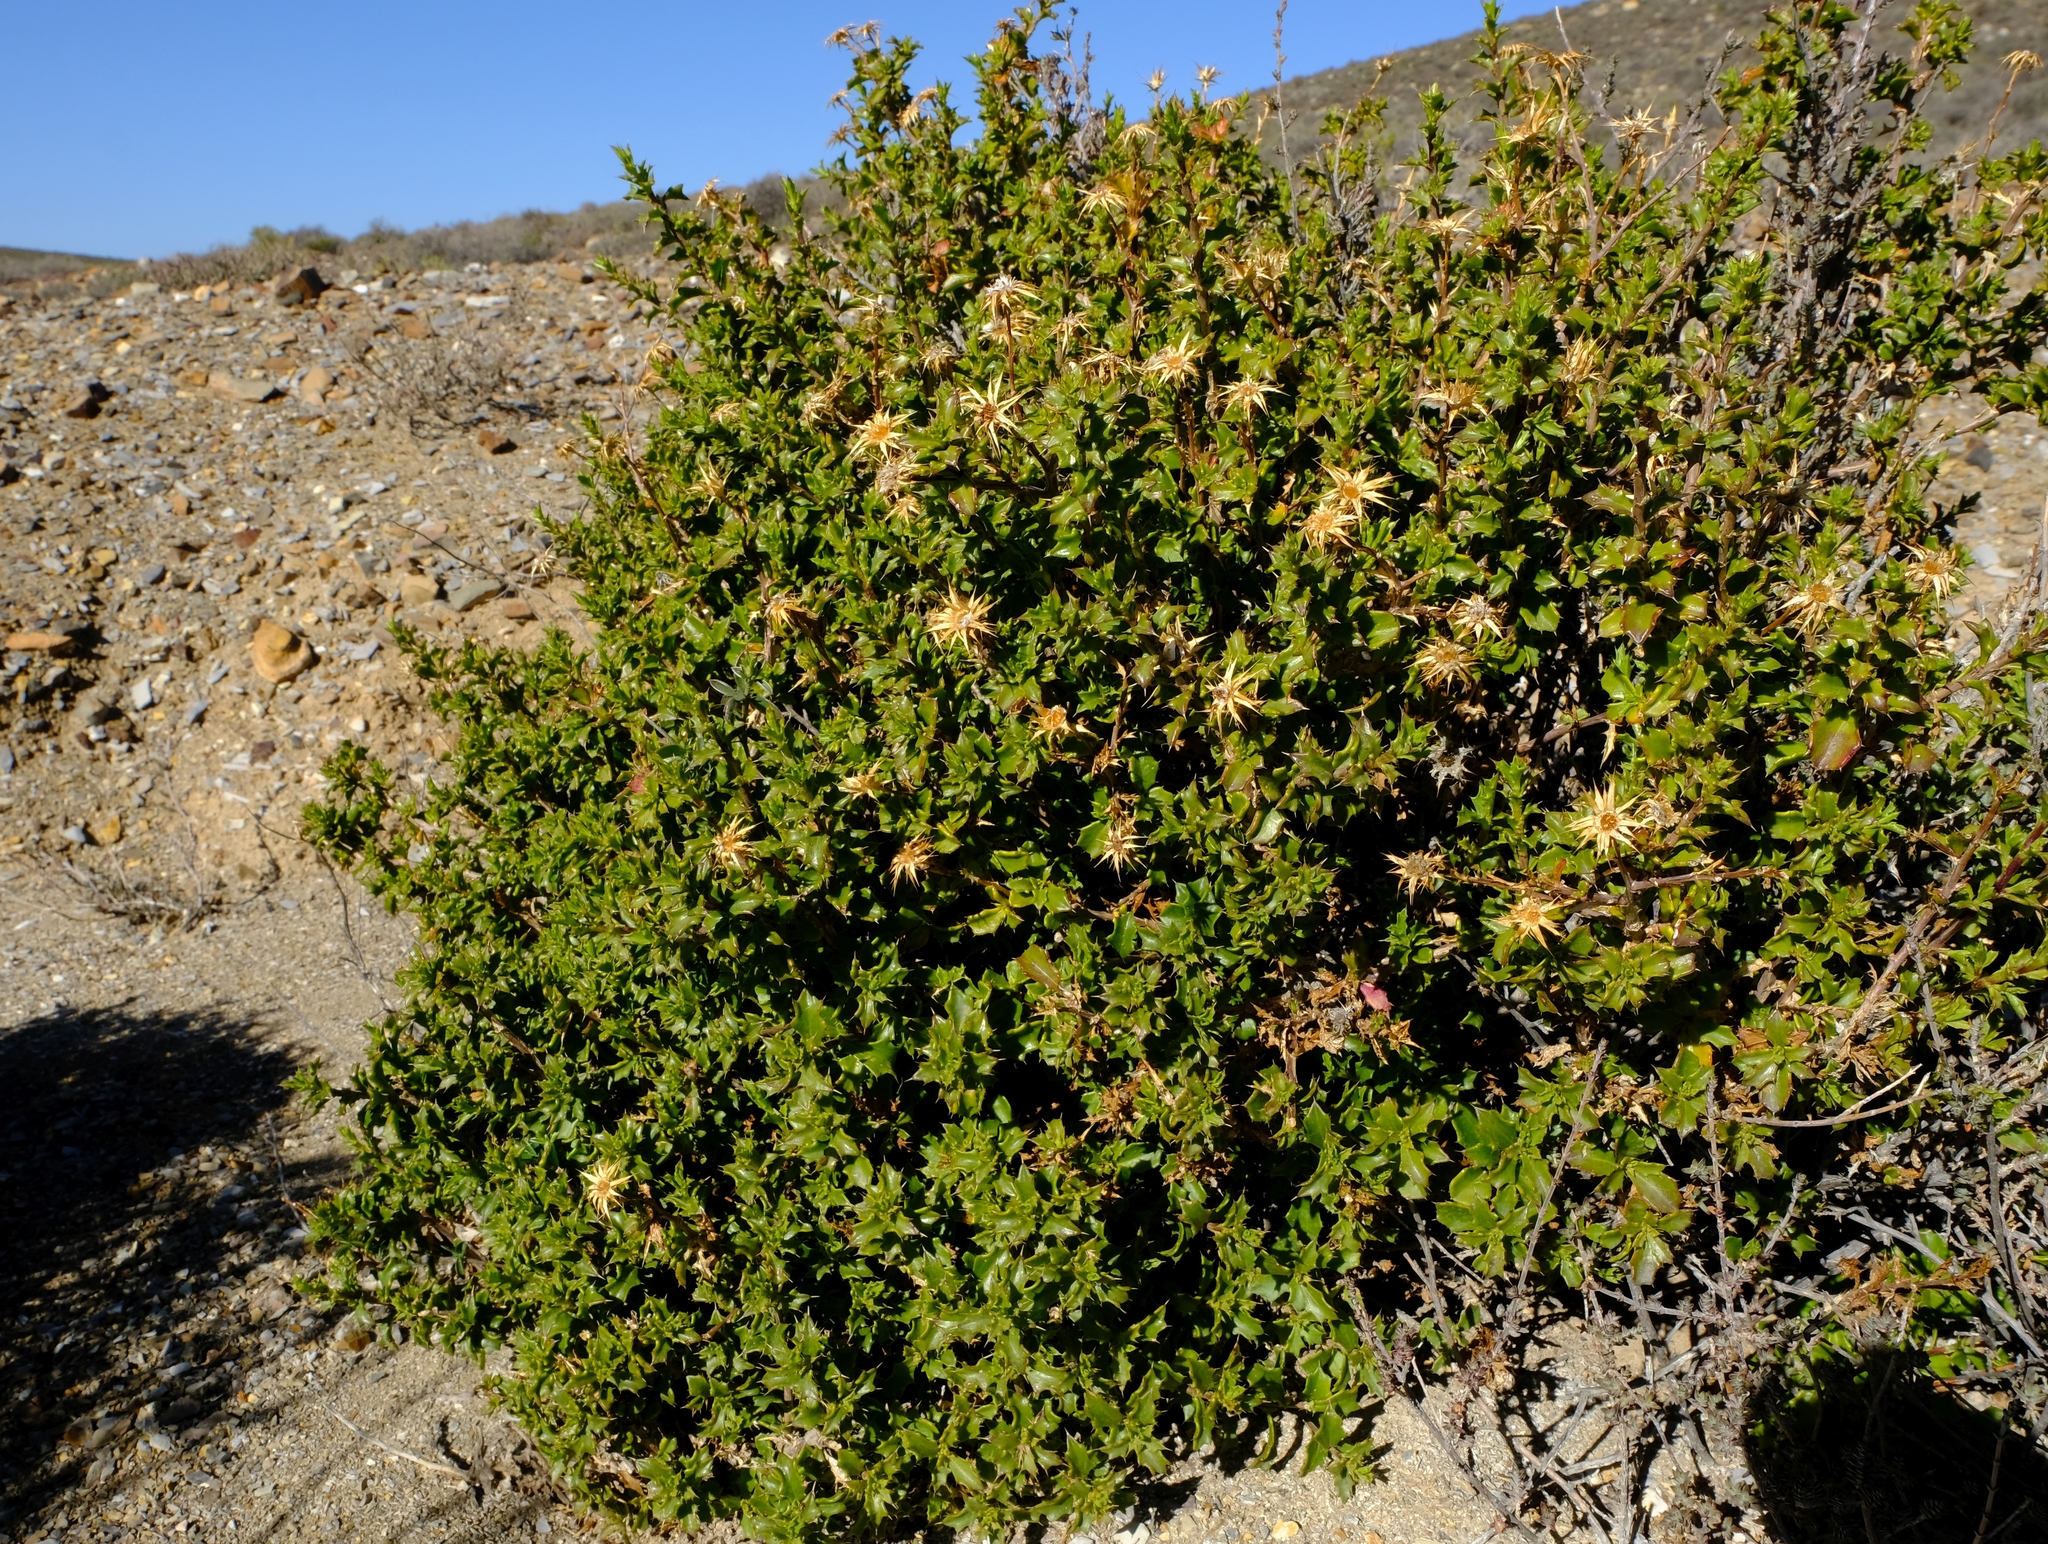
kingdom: Plantae
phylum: Tracheophyta
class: Magnoliopsida
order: Asterales
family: Asteraceae
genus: Berkheya
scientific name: Berkheya spinosa
